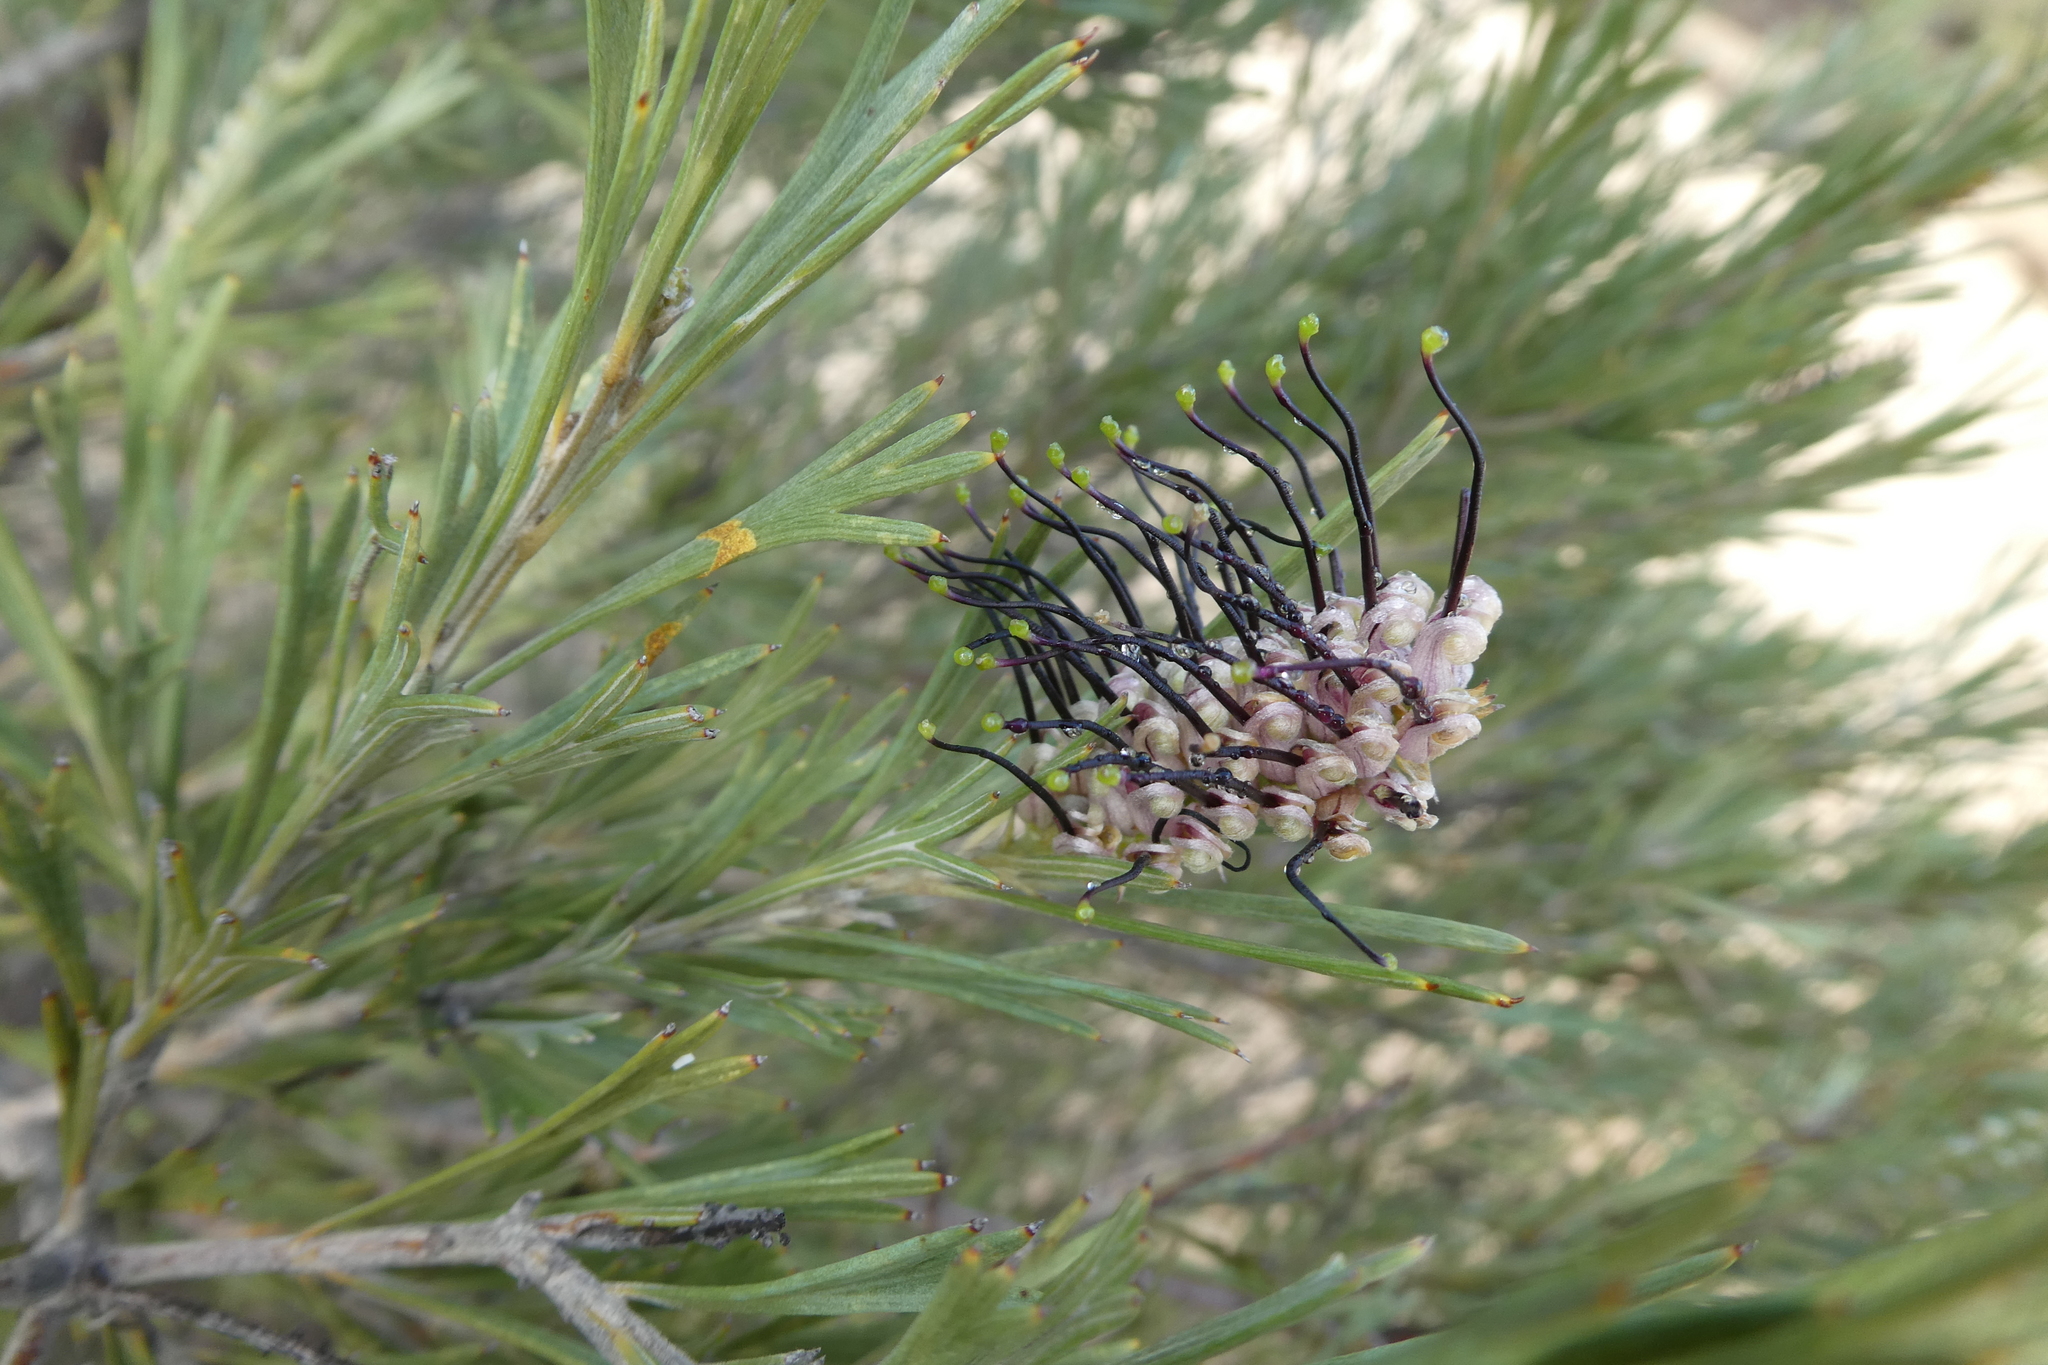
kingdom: Plantae
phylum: Tracheophyta
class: Magnoliopsida
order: Proteales
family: Proteaceae
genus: Grevillea
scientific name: Grevillea hookeriana
